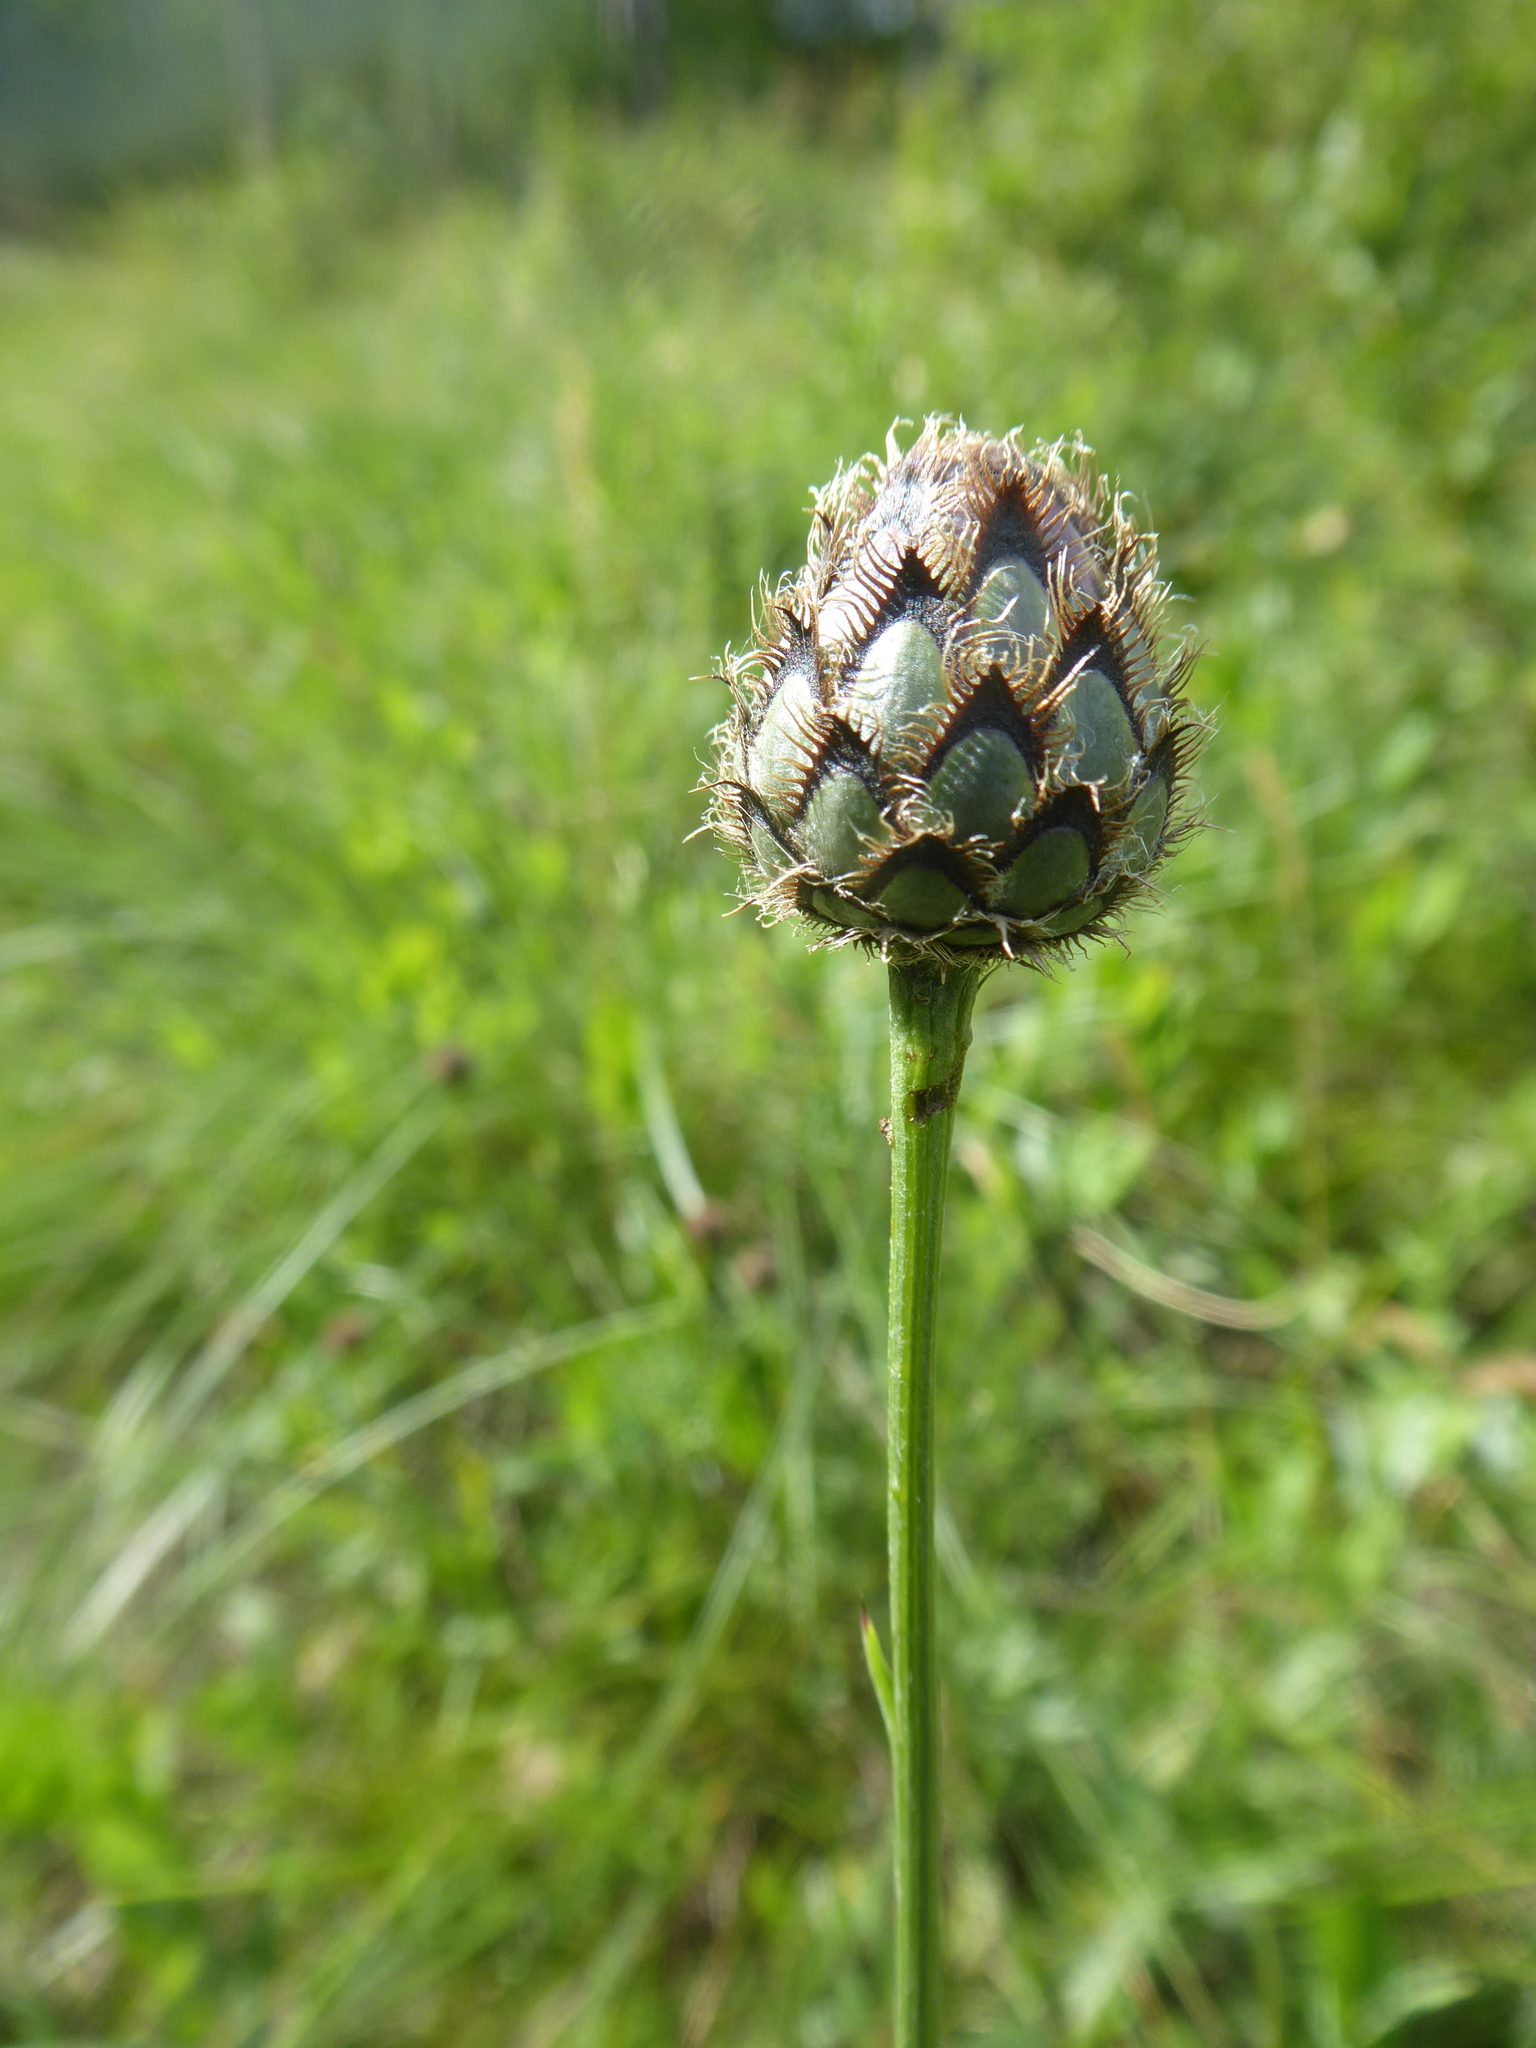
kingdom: Plantae
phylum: Tracheophyta
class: Magnoliopsida
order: Asterales
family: Asteraceae
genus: Centaurea
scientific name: Centaurea scabiosa
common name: Greater knapweed
